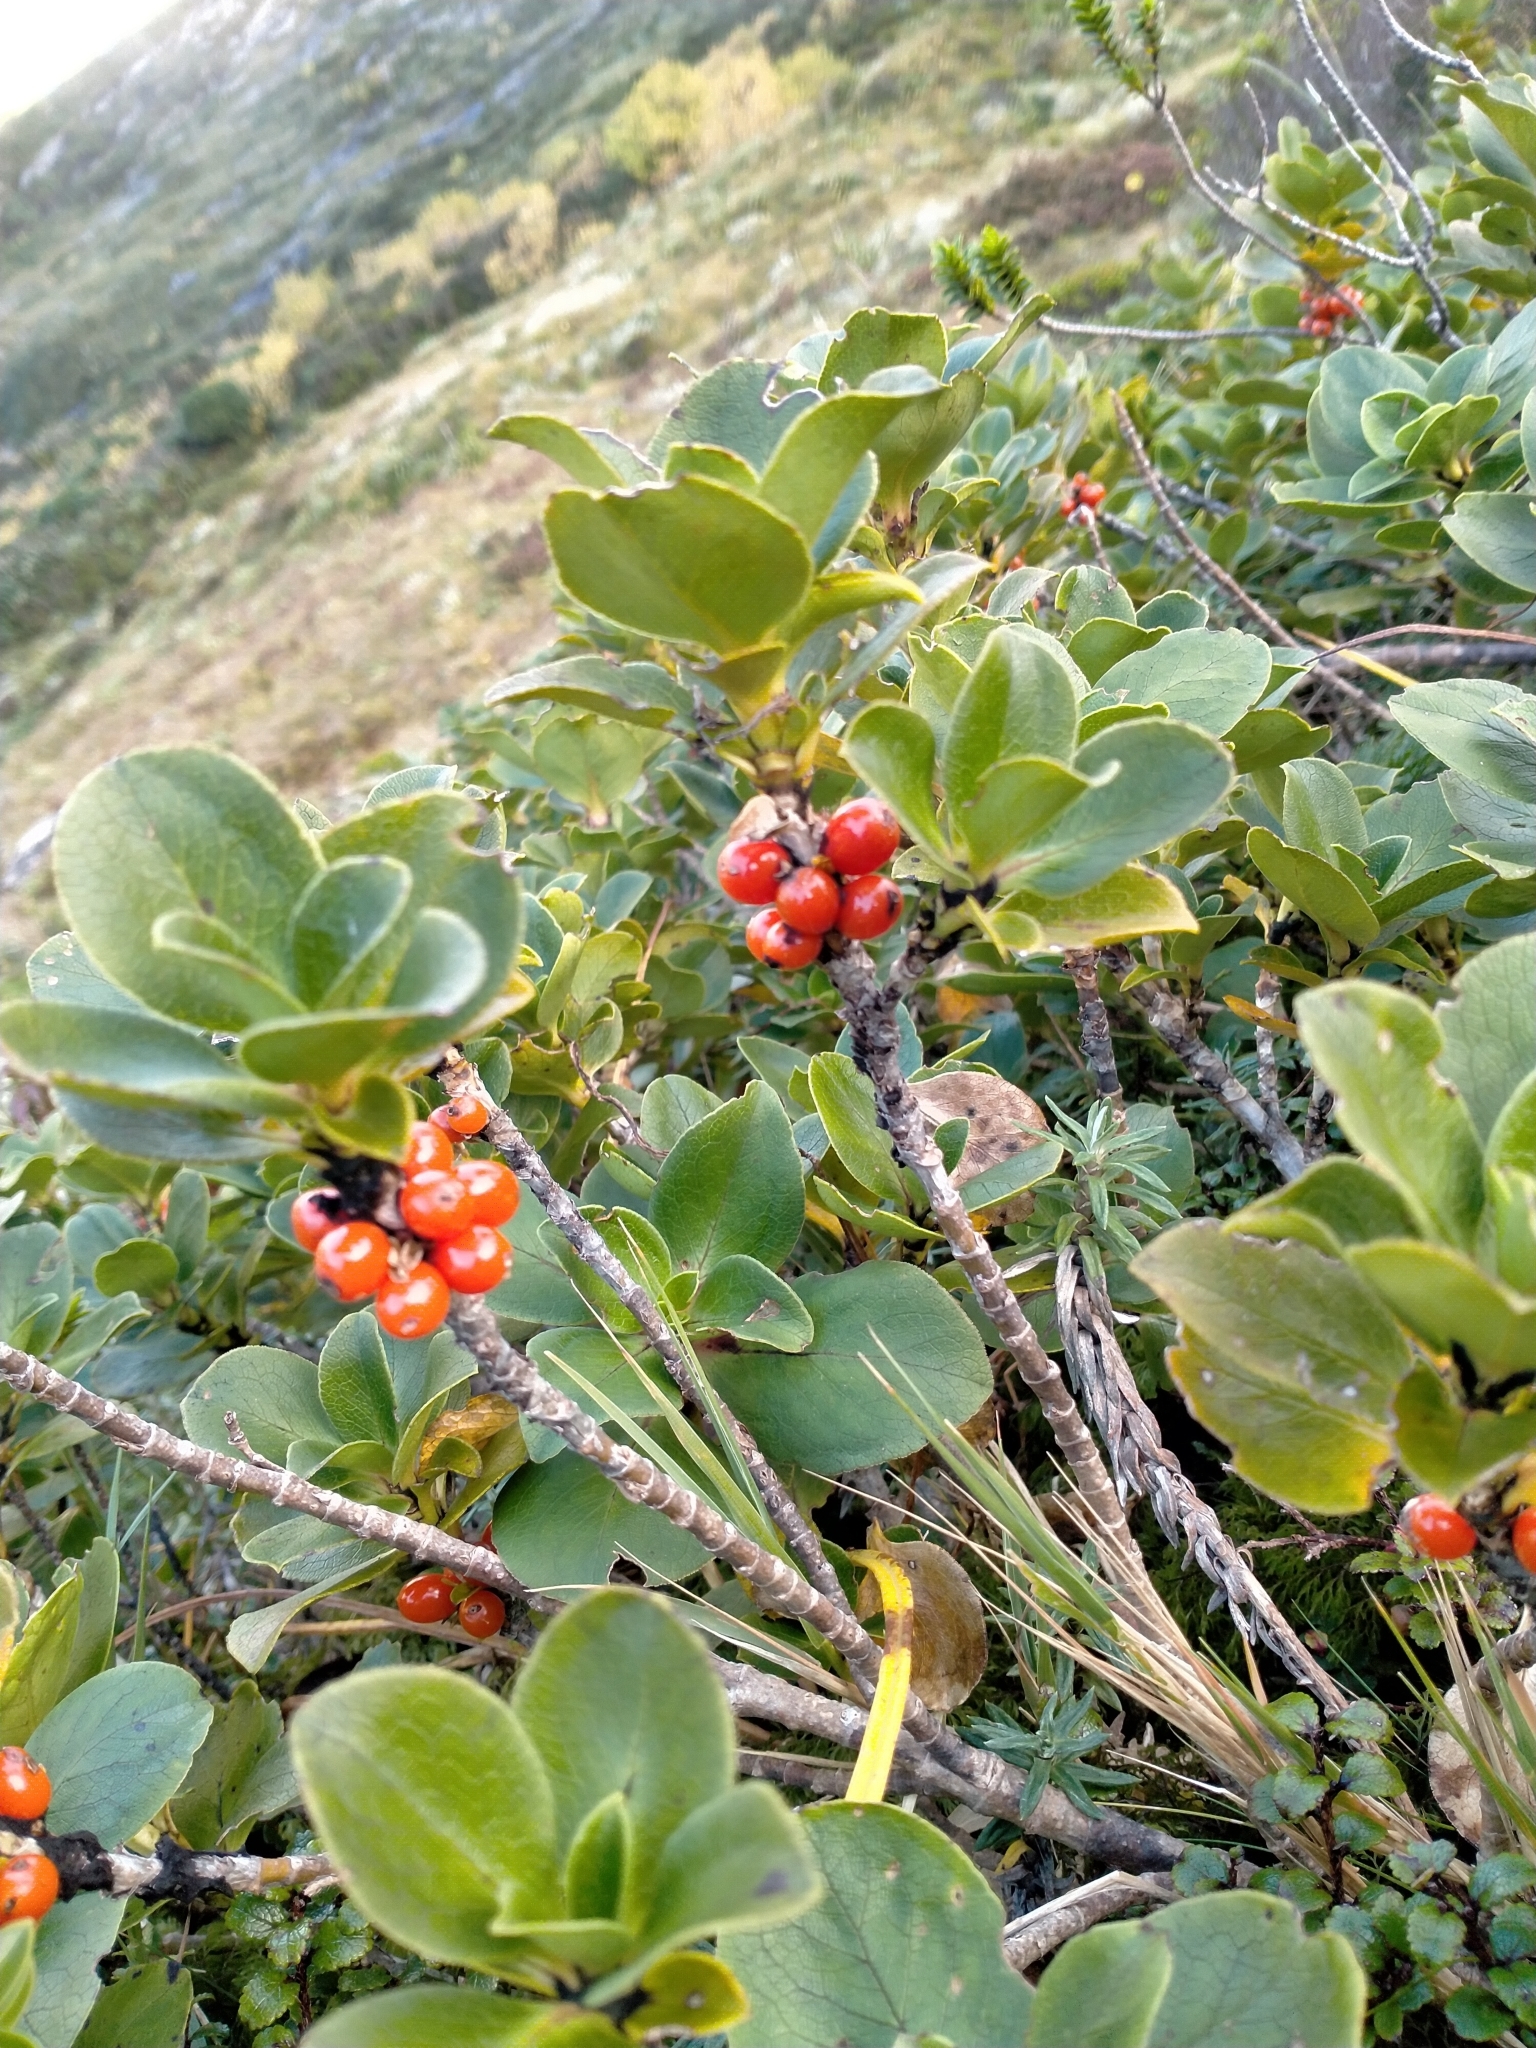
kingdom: Plantae
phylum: Tracheophyta
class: Magnoliopsida
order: Gentianales
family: Rubiaceae
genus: Coprosma
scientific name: Coprosma serrulata
